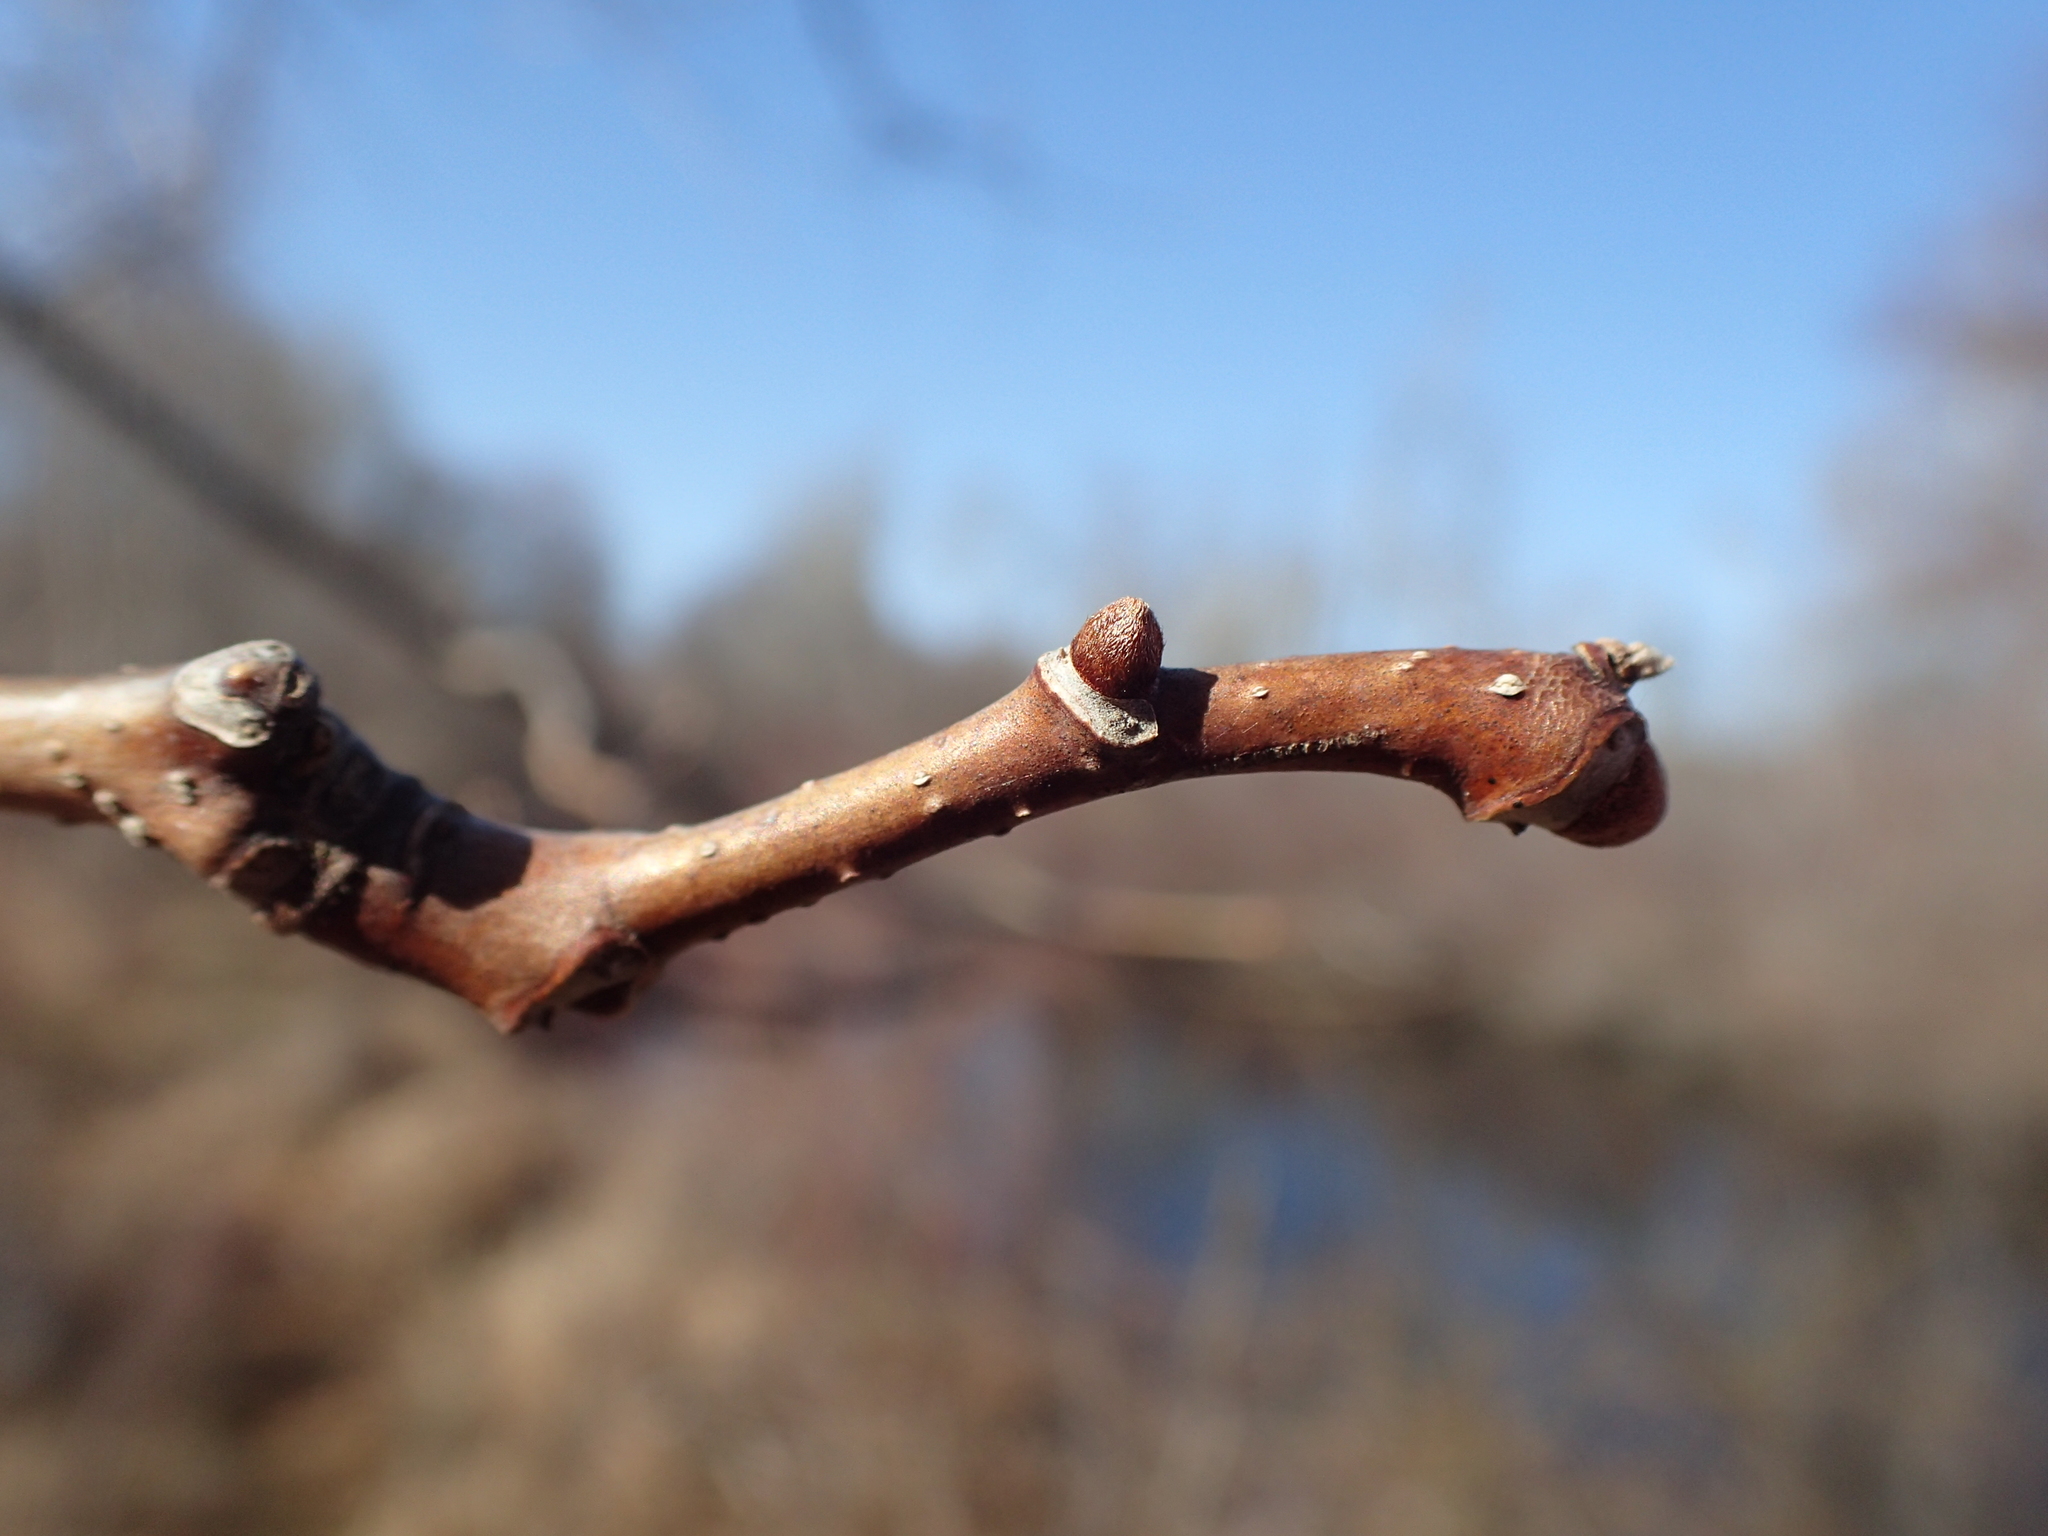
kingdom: Plantae
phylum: Tracheophyta
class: Magnoliopsida
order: Sapindales
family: Rutaceae
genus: Phellodendron
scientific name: Phellodendron amurense
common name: Amur corktree
